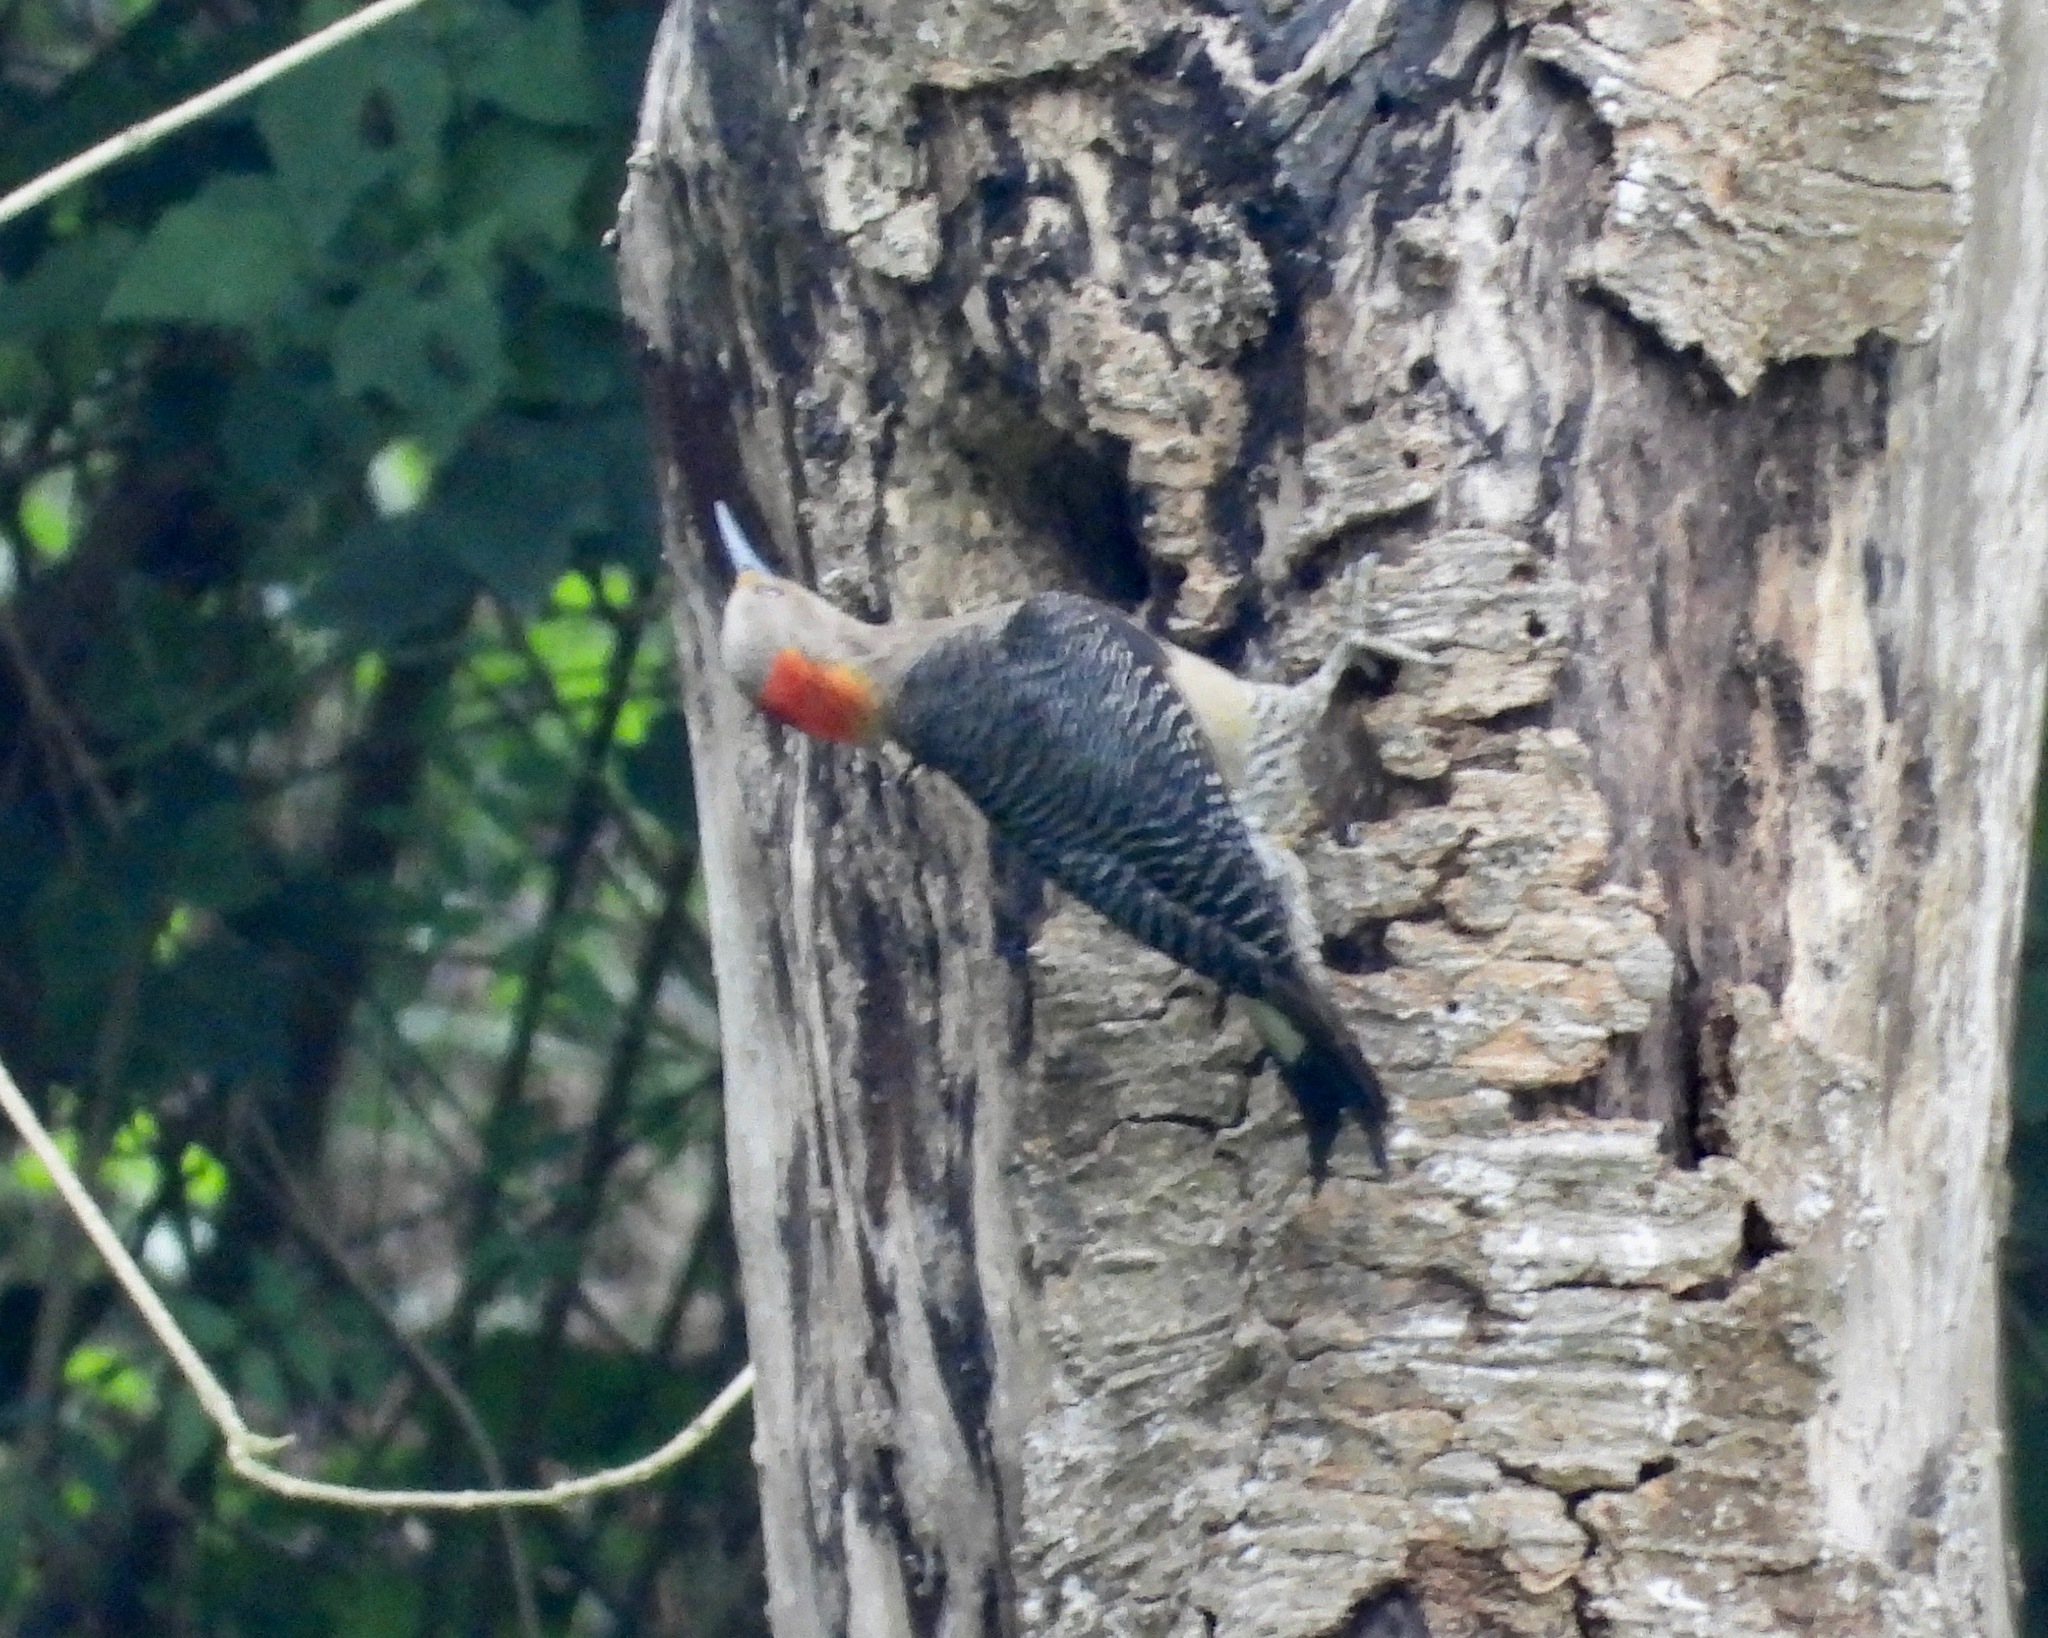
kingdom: Animalia
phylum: Chordata
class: Aves
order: Piciformes
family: Picidae
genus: Melanerpes
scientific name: Melanerpes aurifrons
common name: Golden-fronted woodpecker
